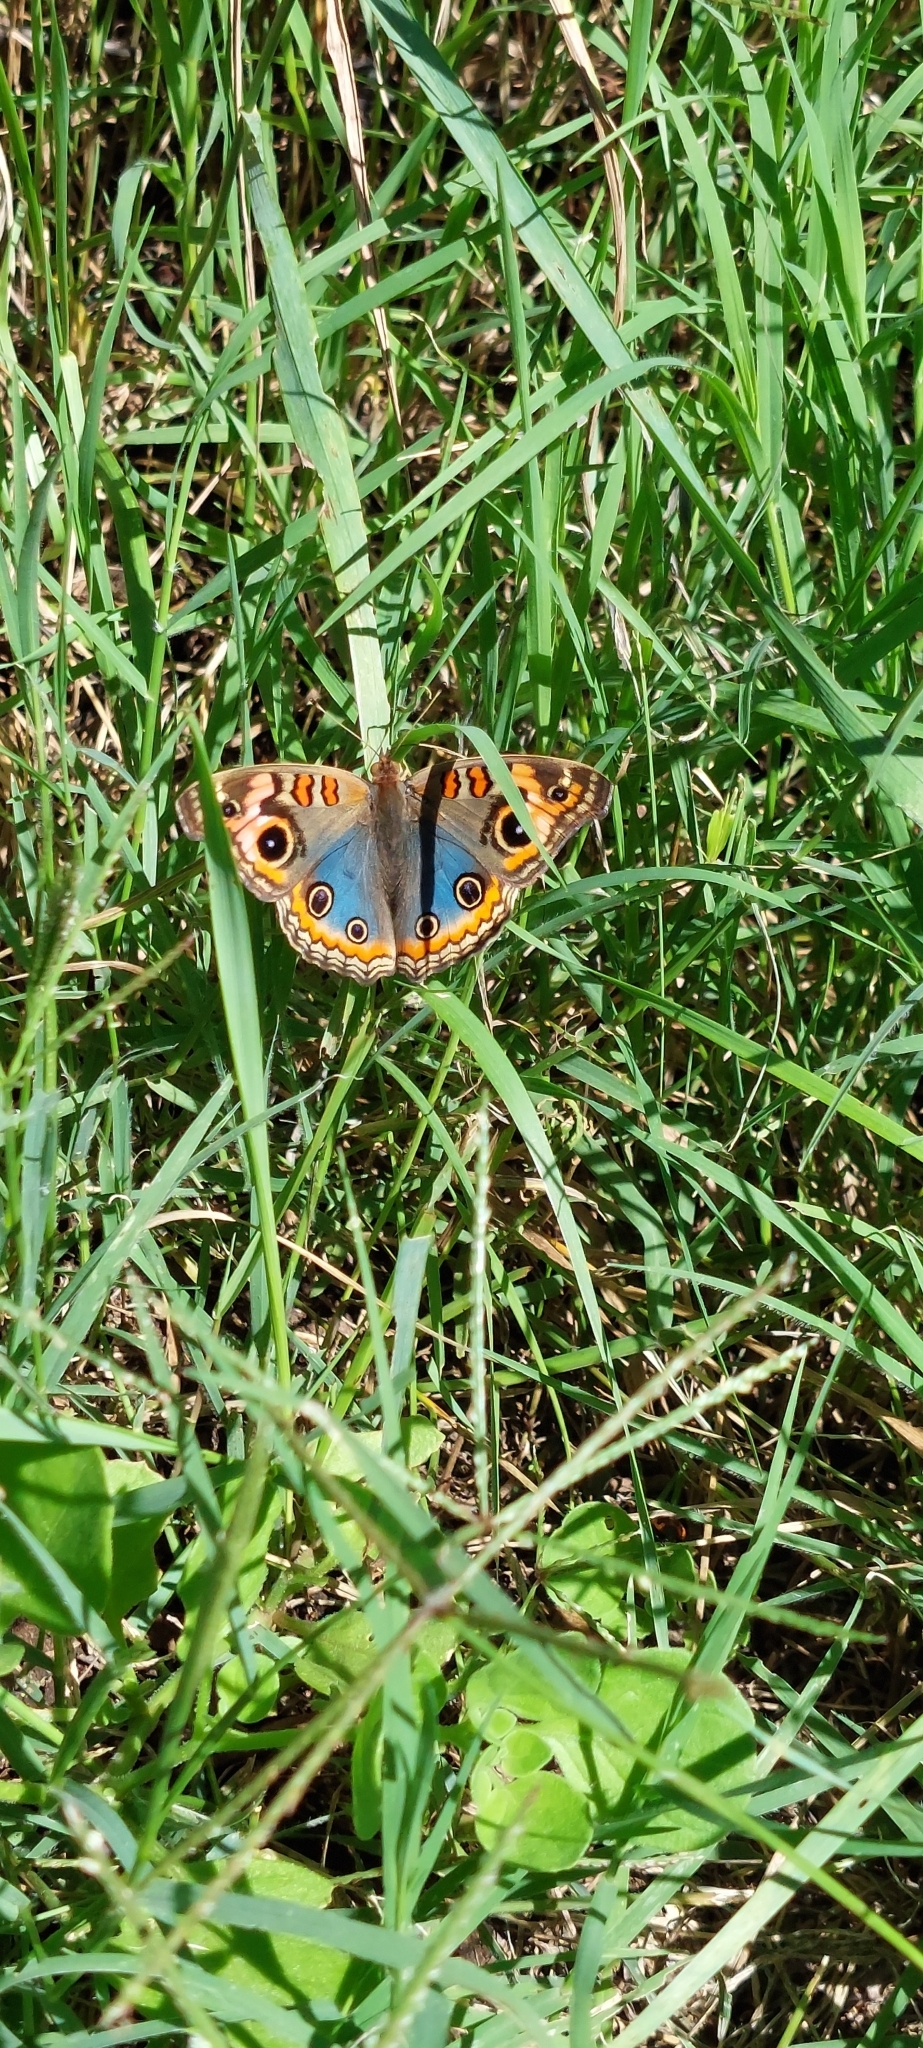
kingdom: Animalia
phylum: Arthropoda
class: Insecta
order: Lepidoptera
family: Nymphalidae
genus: Junonia
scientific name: Junonia lavinia
